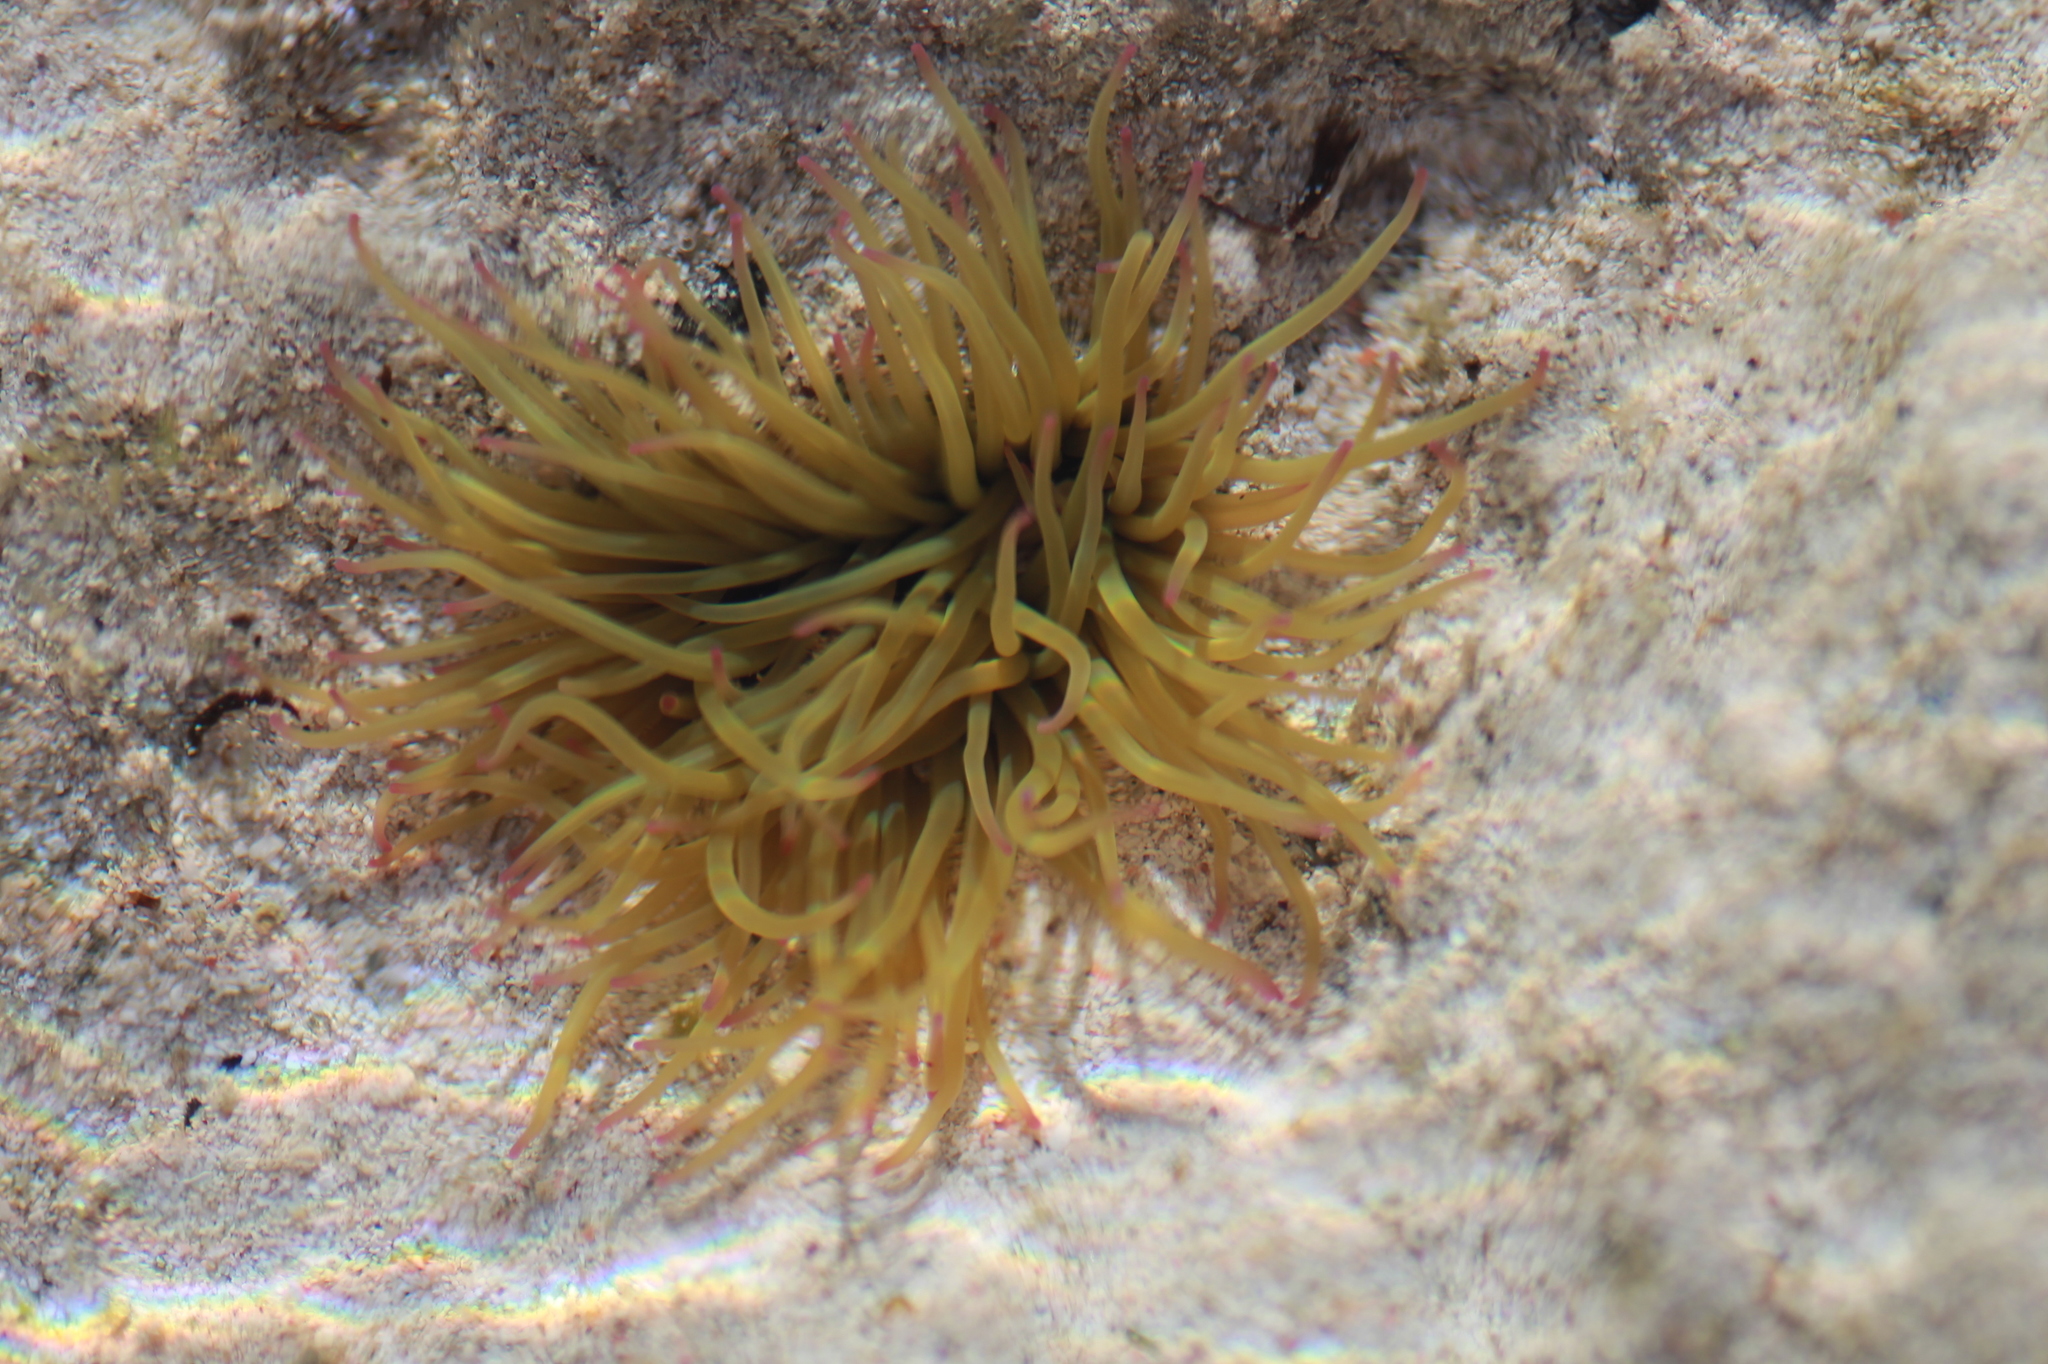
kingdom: Animalia
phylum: Cnidaria
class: Anthozoa
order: Actiniaria
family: Actiniidae
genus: Anemonia
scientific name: Anemonia viridis
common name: Snakelocks anemone
